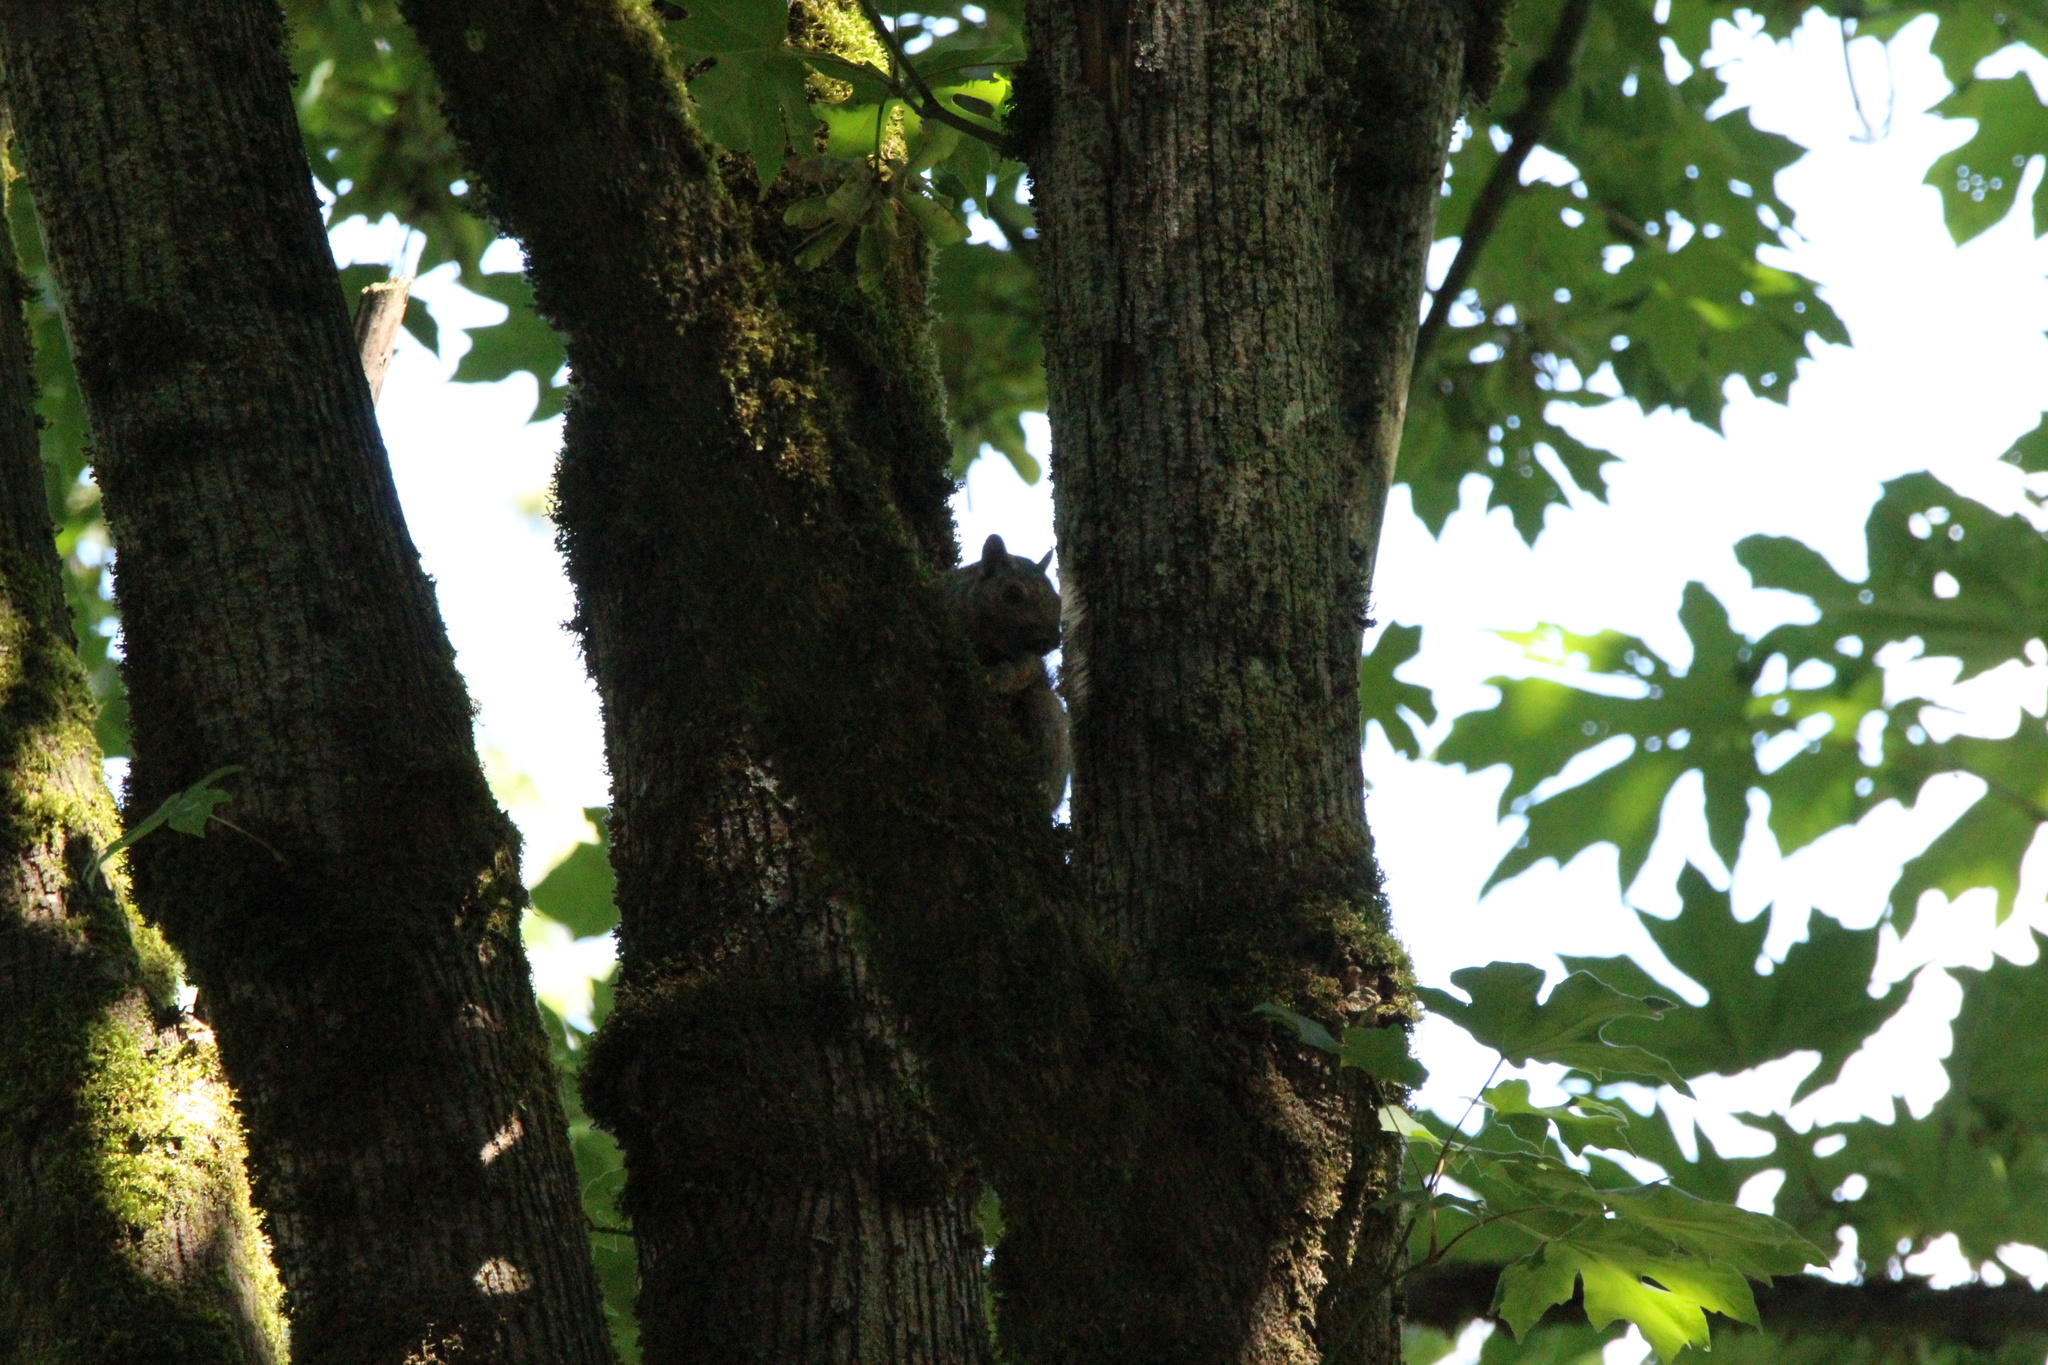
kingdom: Animalia
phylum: Chordata
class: Mammalia
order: Rodentia
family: Sciuridae
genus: Sciurus
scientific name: Sciurus carolinensis
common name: Eastern gray squirrel
